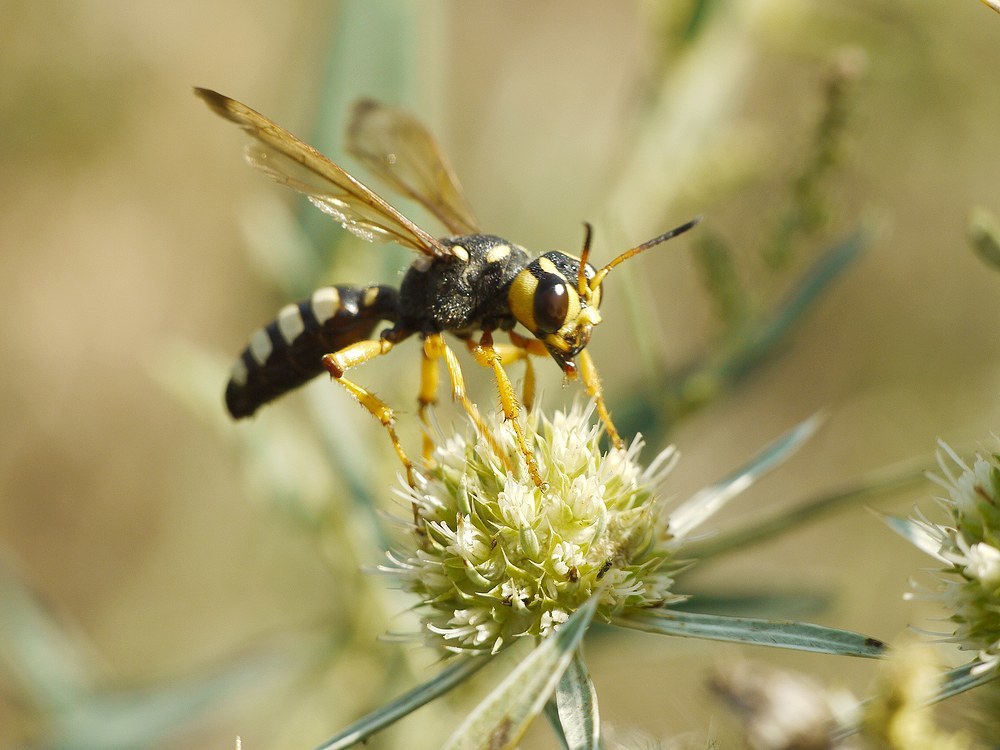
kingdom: Animalia
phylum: Arthropoda
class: Insecta
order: Hymenoptera
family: Crabronidae
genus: Cerceris
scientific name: Cerceris tuberculata
